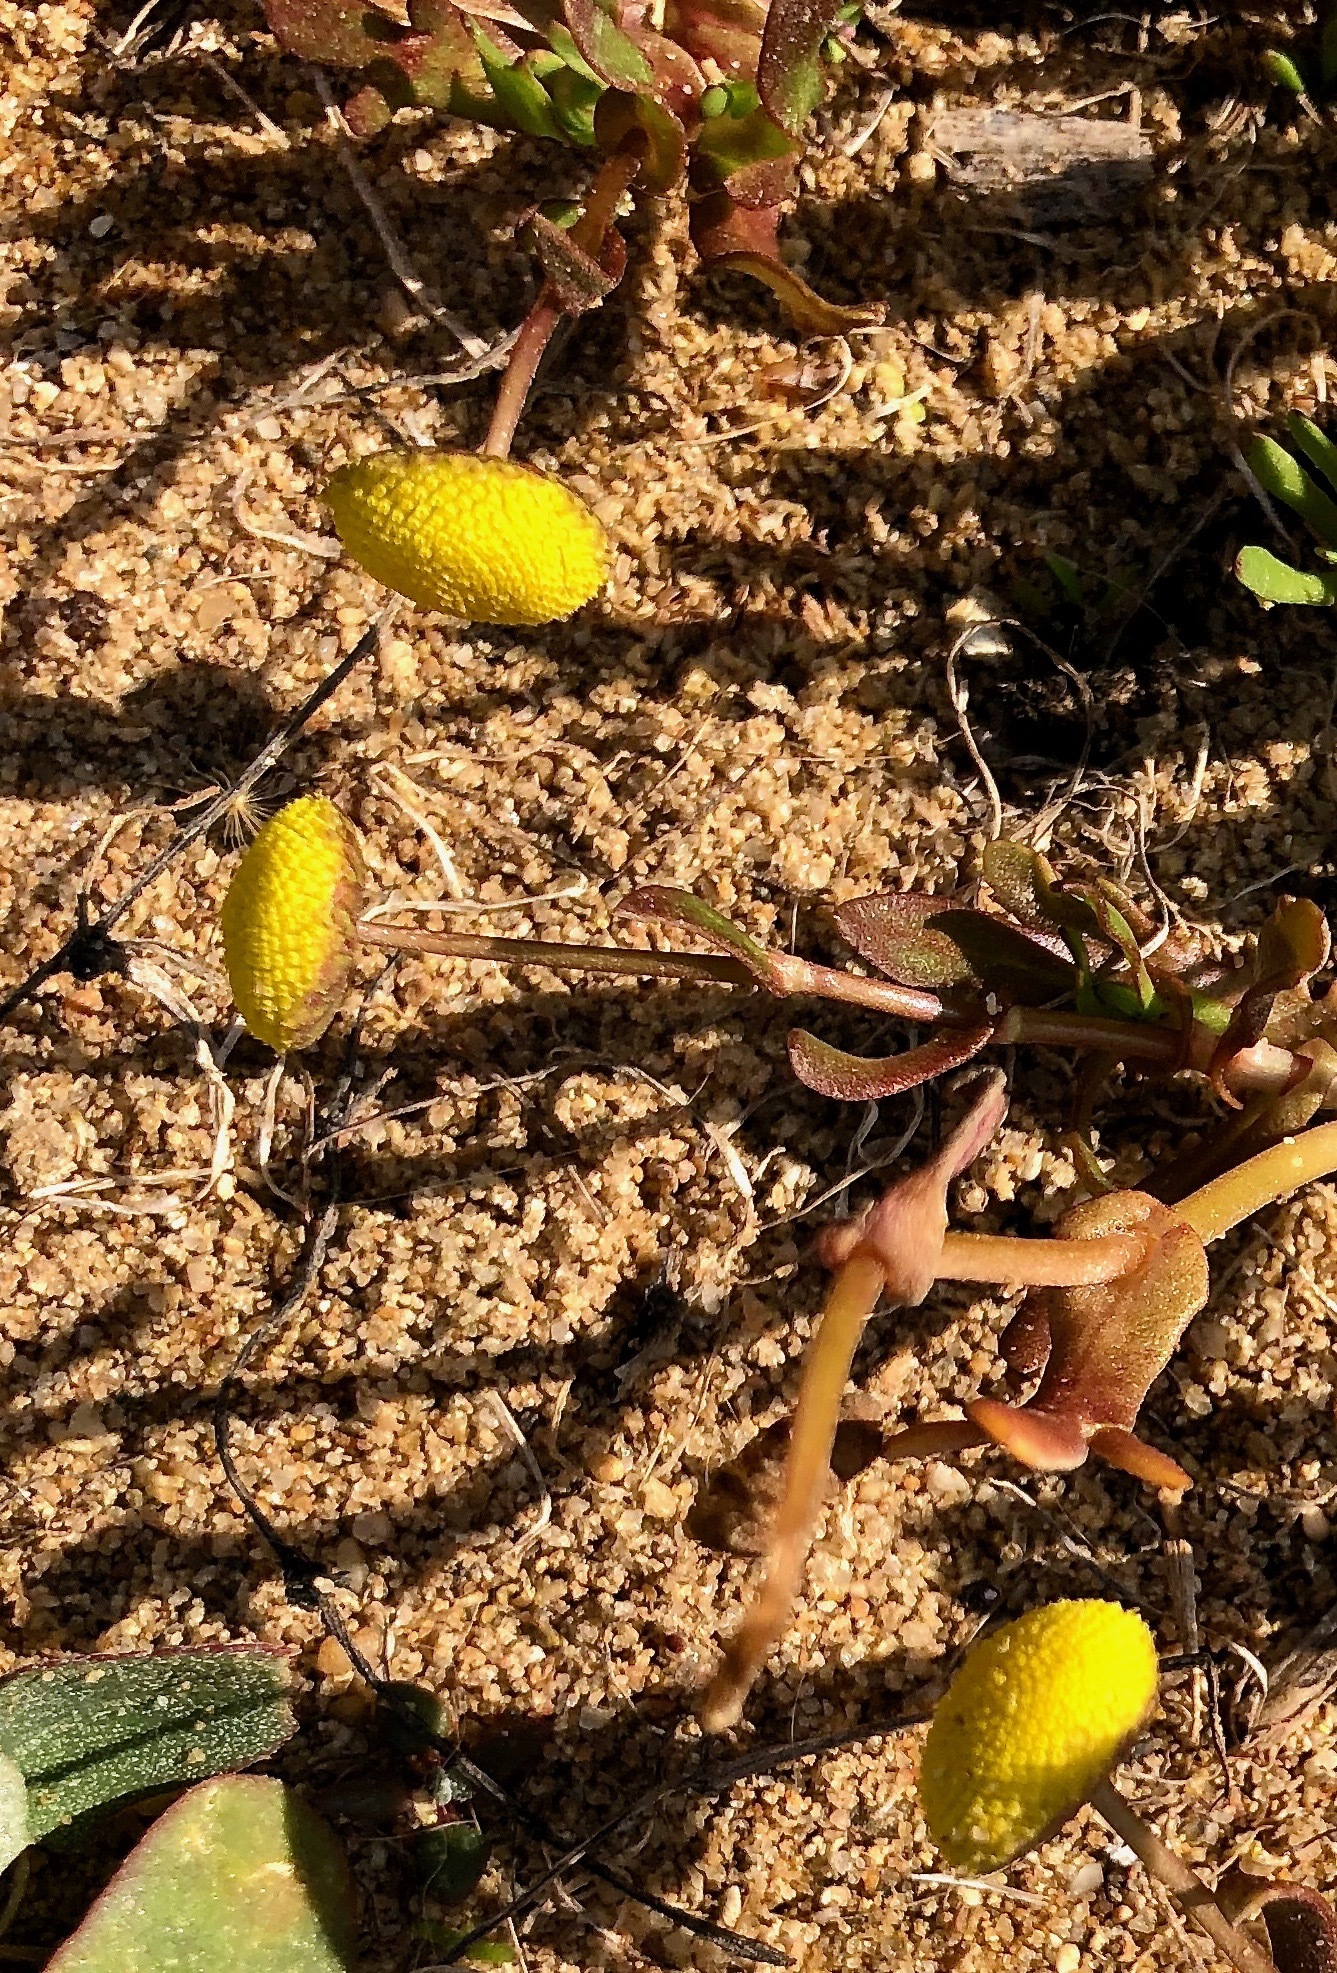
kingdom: Plantae
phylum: Tracheophyta
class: Magnoliopsida
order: Asterales
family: Asteraceae
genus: Cotula
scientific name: Cotula coronopifolia
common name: Buttonweed
